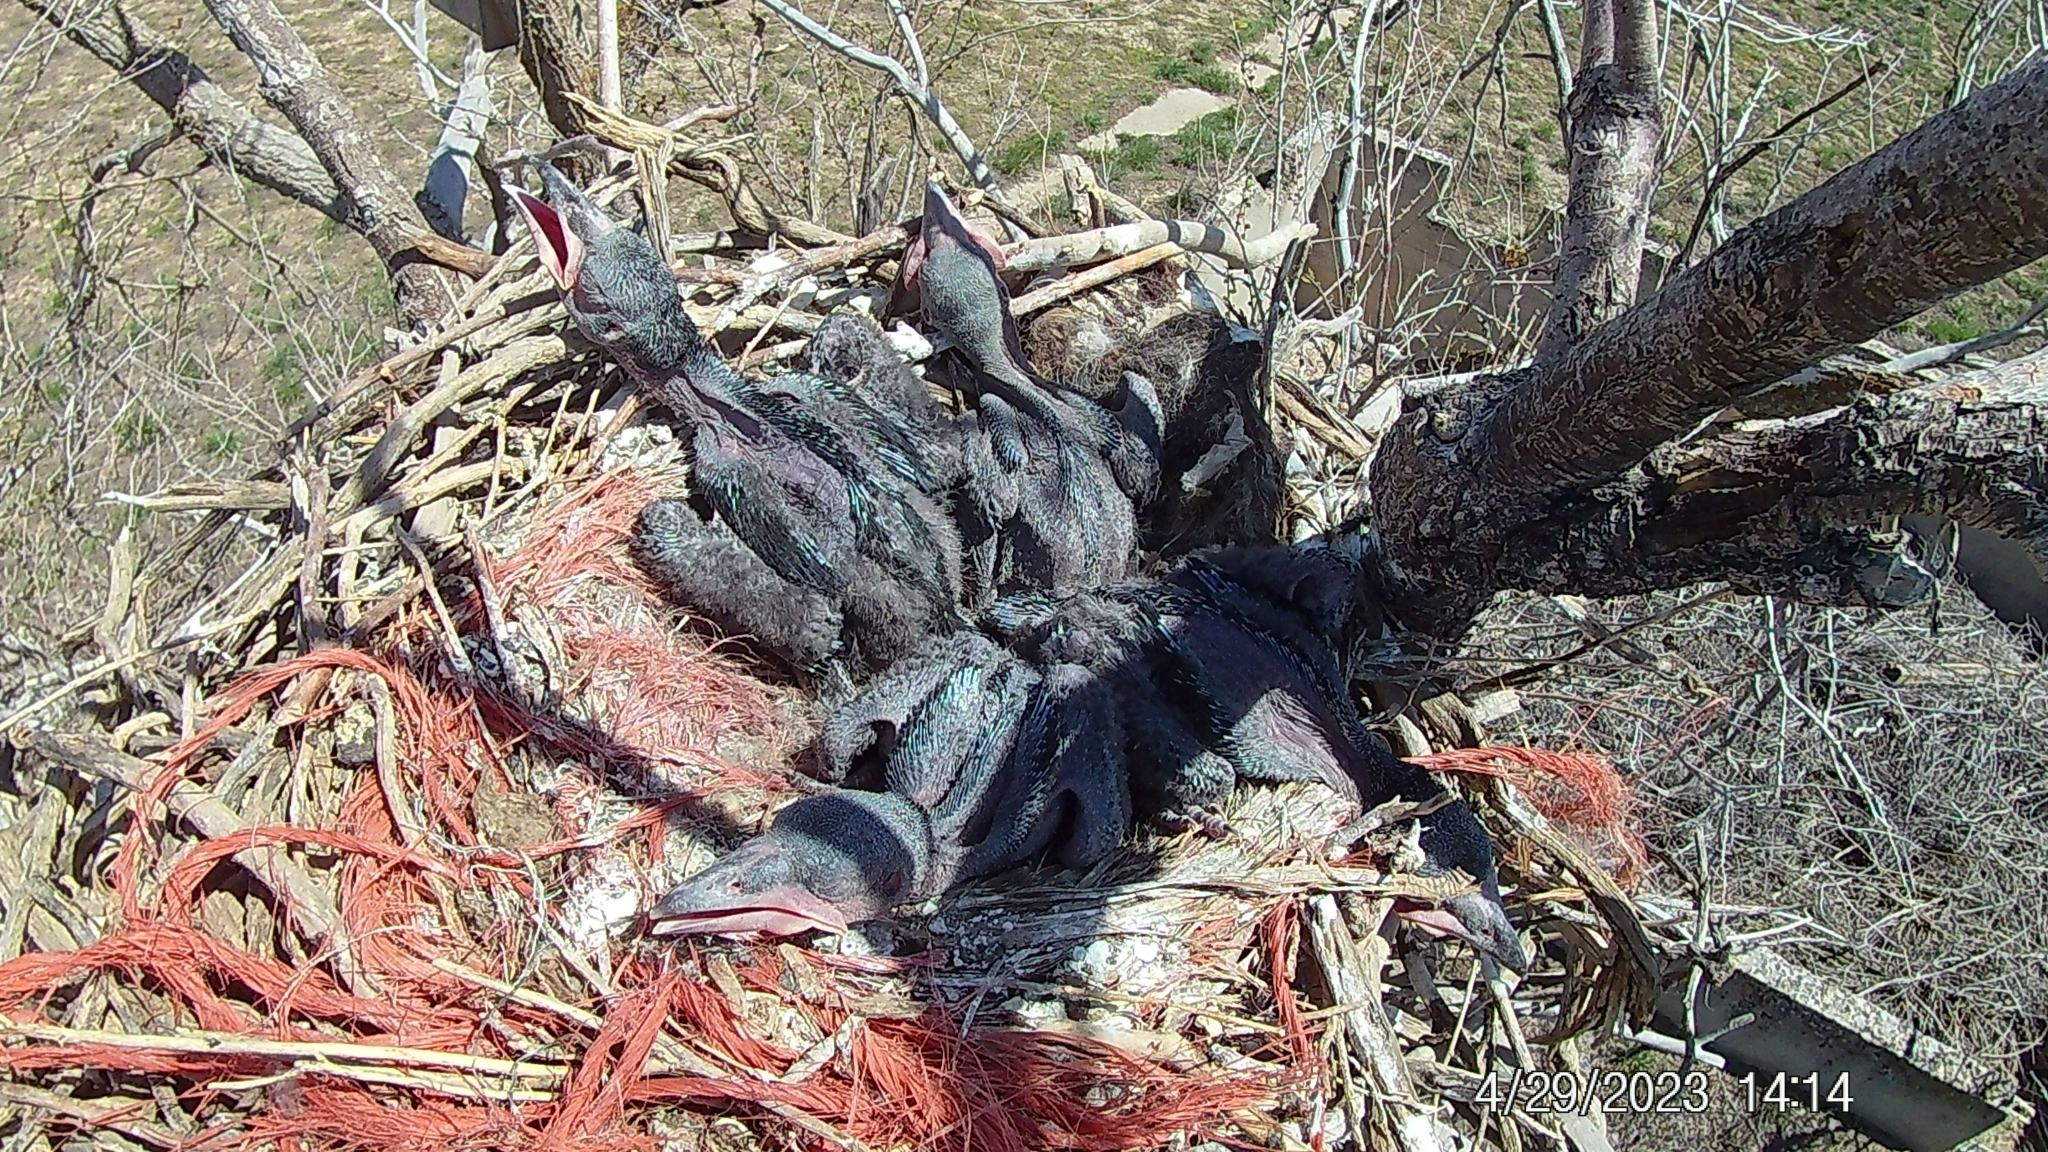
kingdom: Animalia
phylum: Chordata
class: Aves
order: Passeriformes
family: Corvidae
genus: Corvus
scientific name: Corvus corax
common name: Common raven
